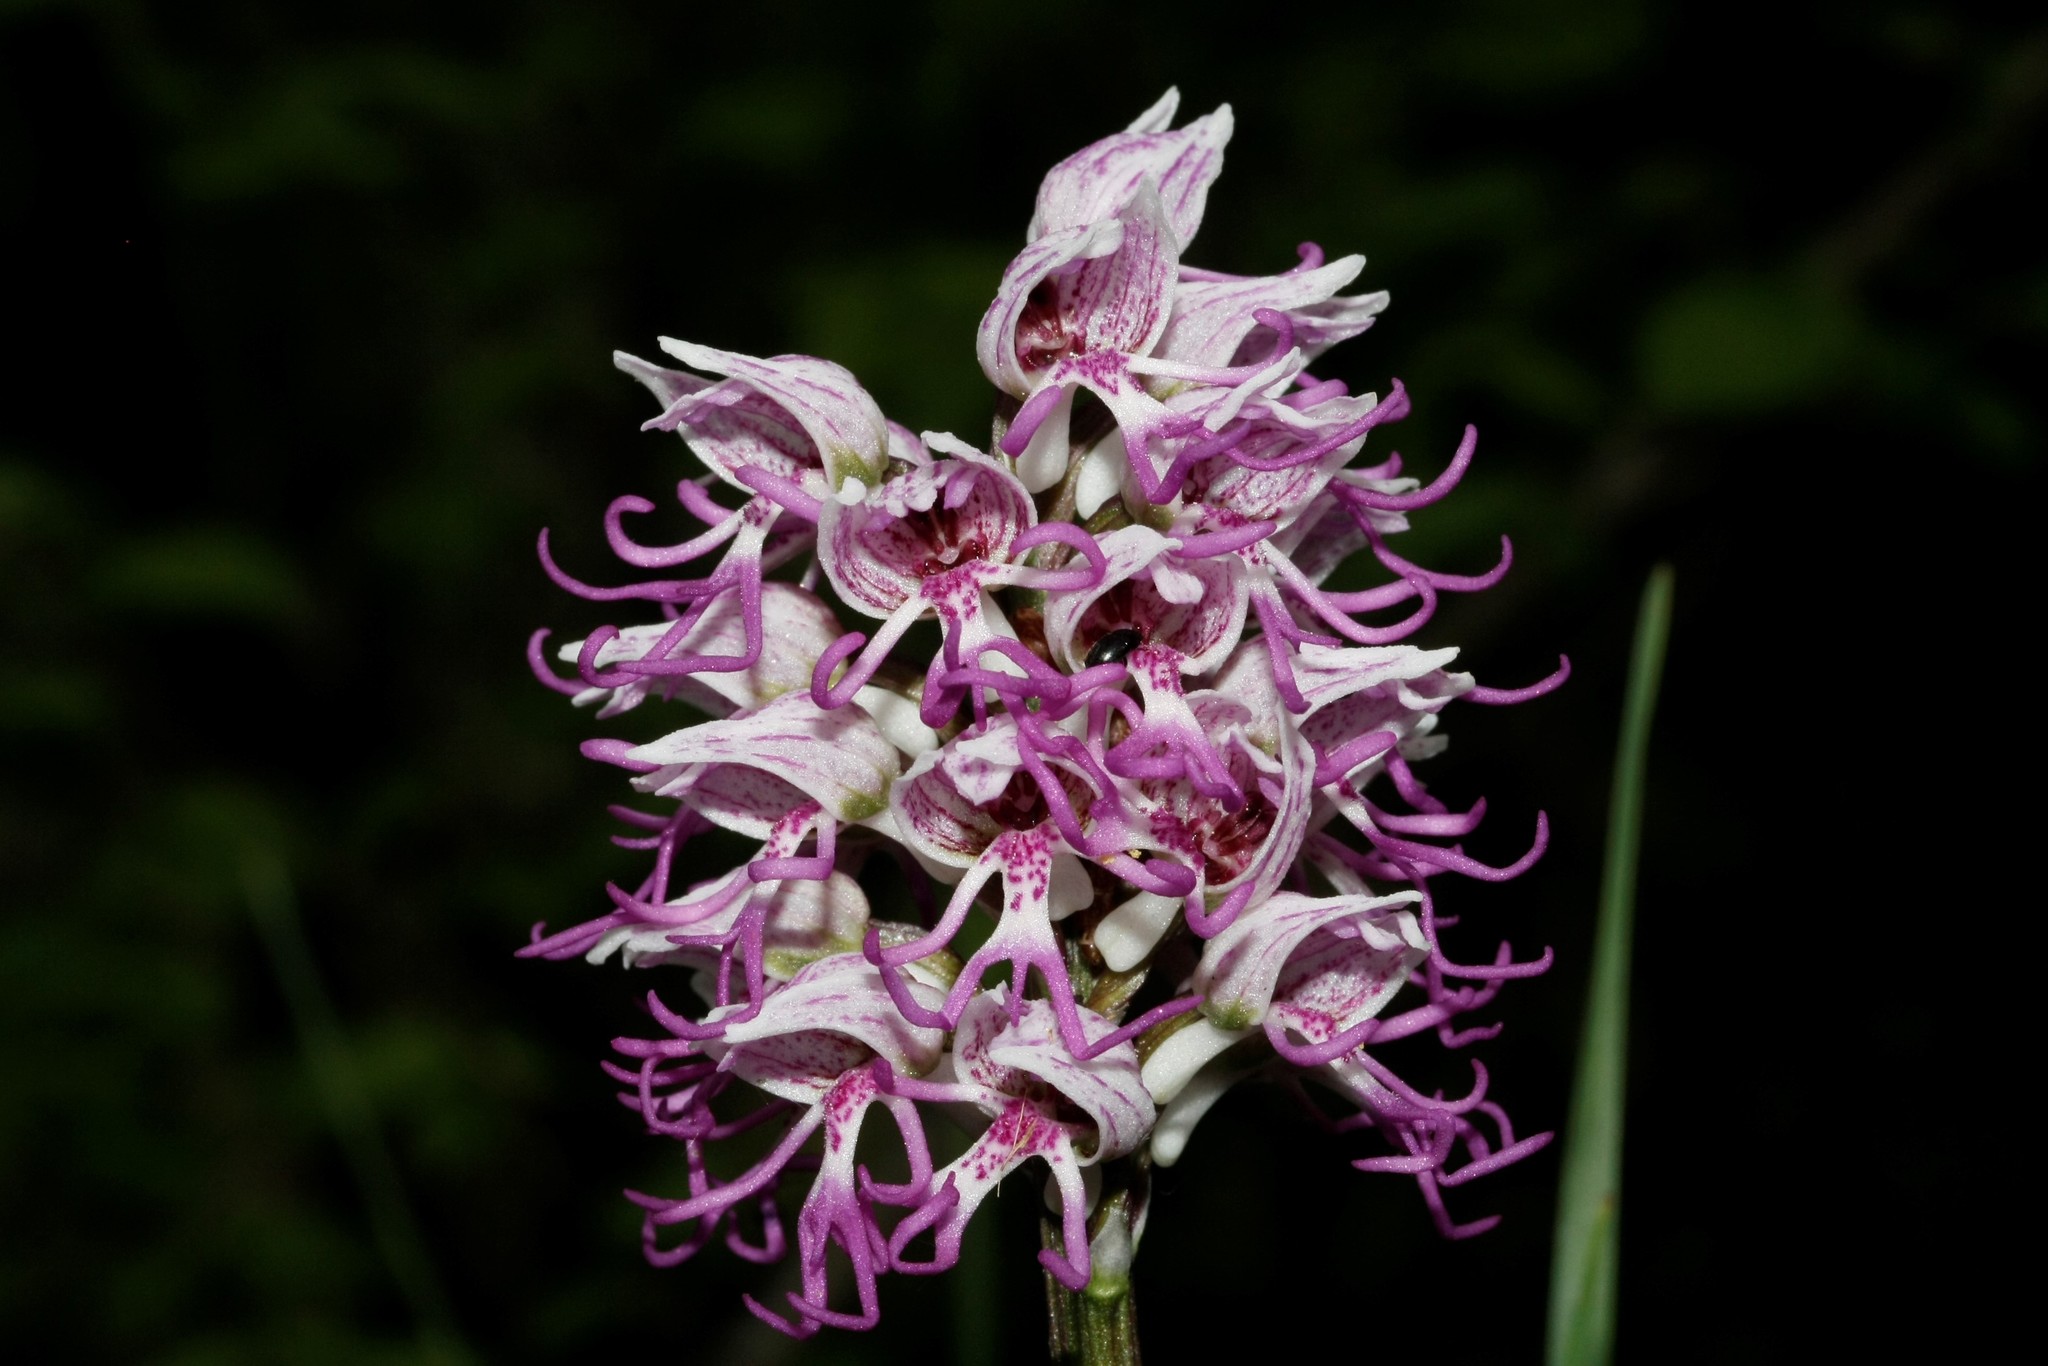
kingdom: Plantae
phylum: Tracheophyta
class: Liliopsida
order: Asparagales
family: Orchidaceae
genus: Orchis
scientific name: Orchis simia
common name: Monkey orchid
